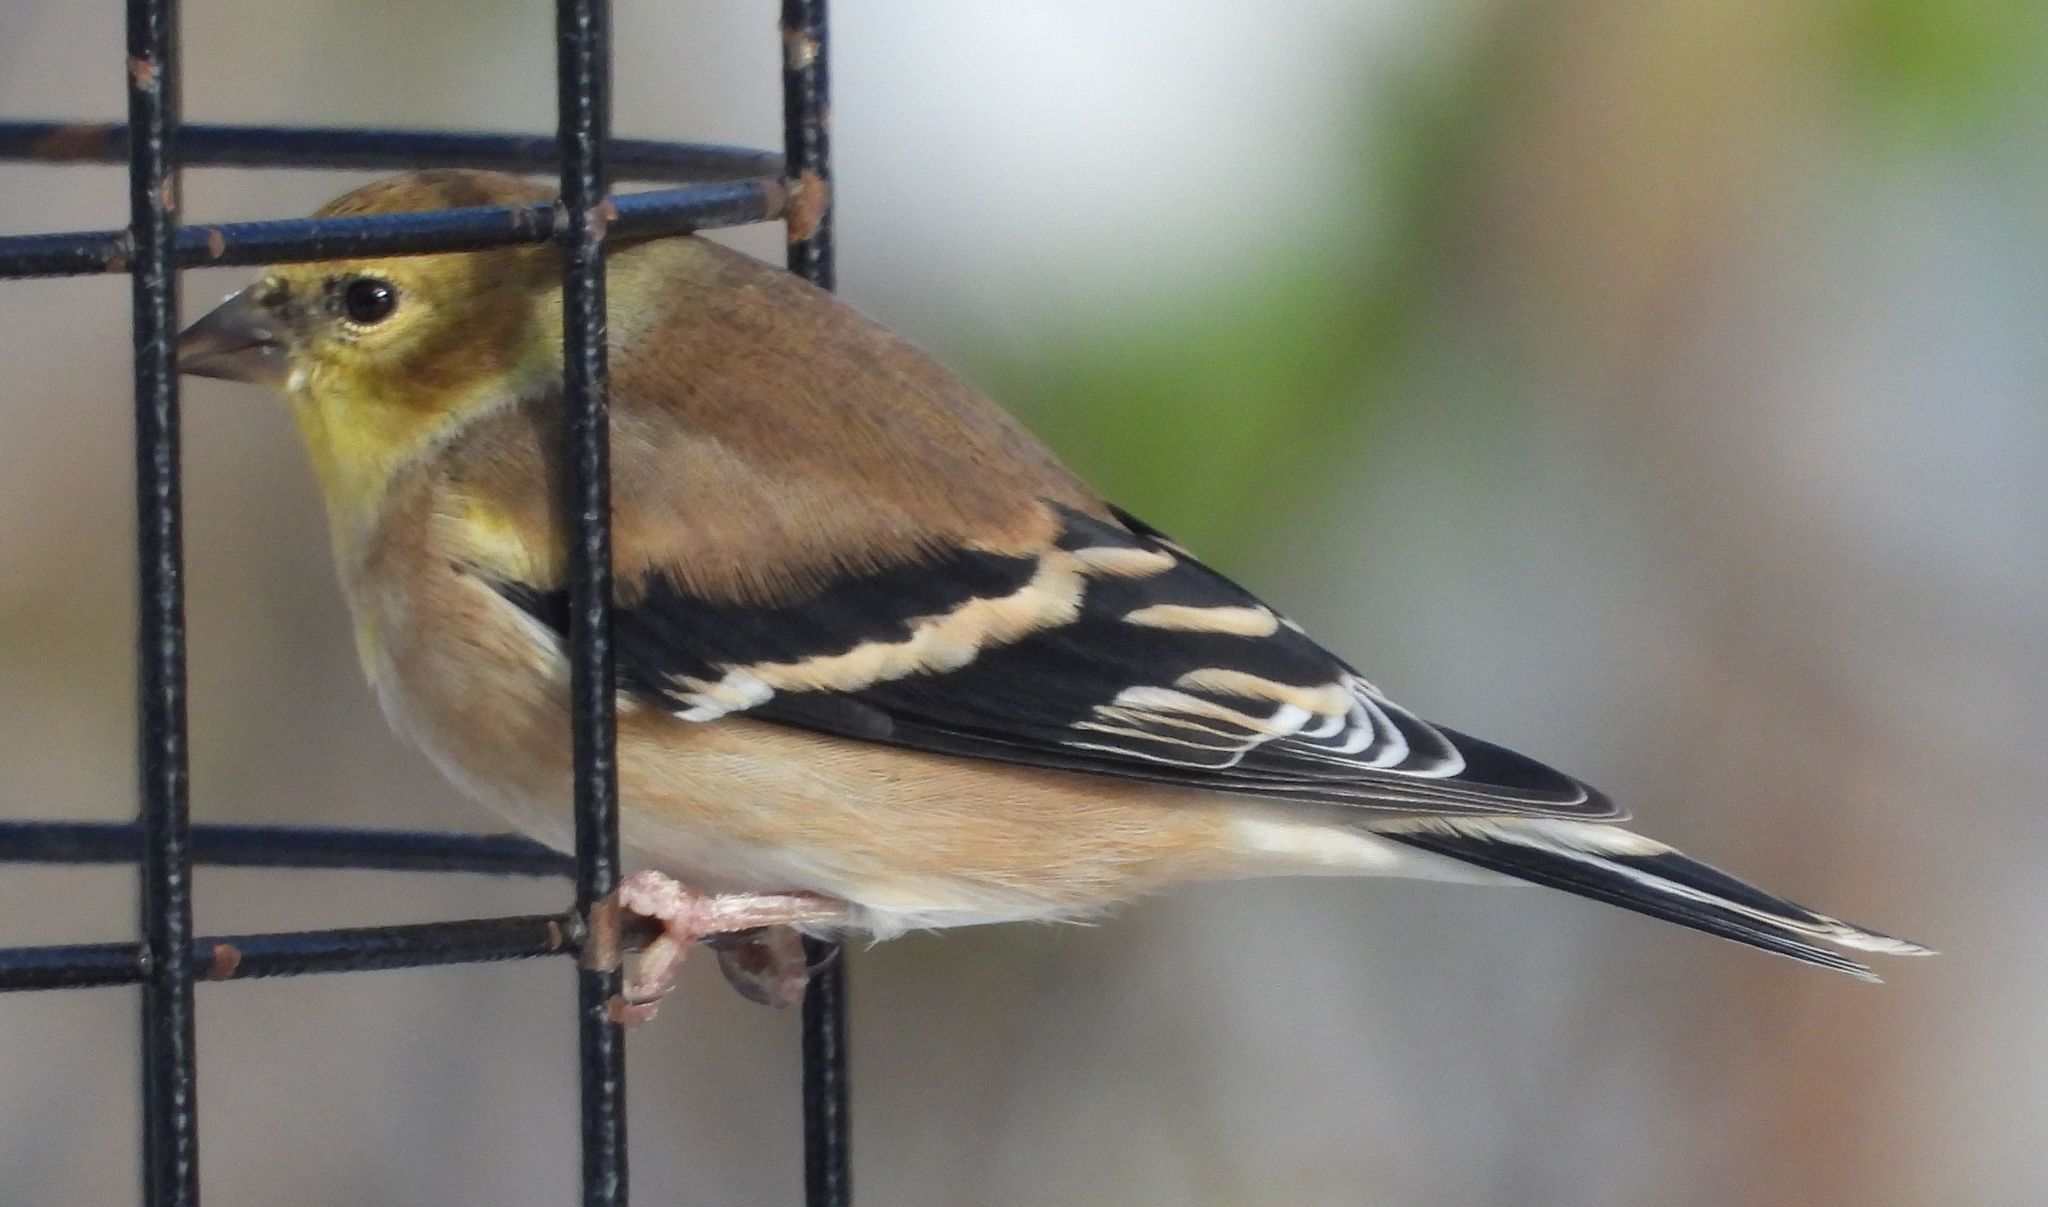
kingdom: Animalia
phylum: Chordata
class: Aves
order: Passeriformes
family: Fringillidae
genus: Spinus
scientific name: Spinus tristis
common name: American goldfinch
